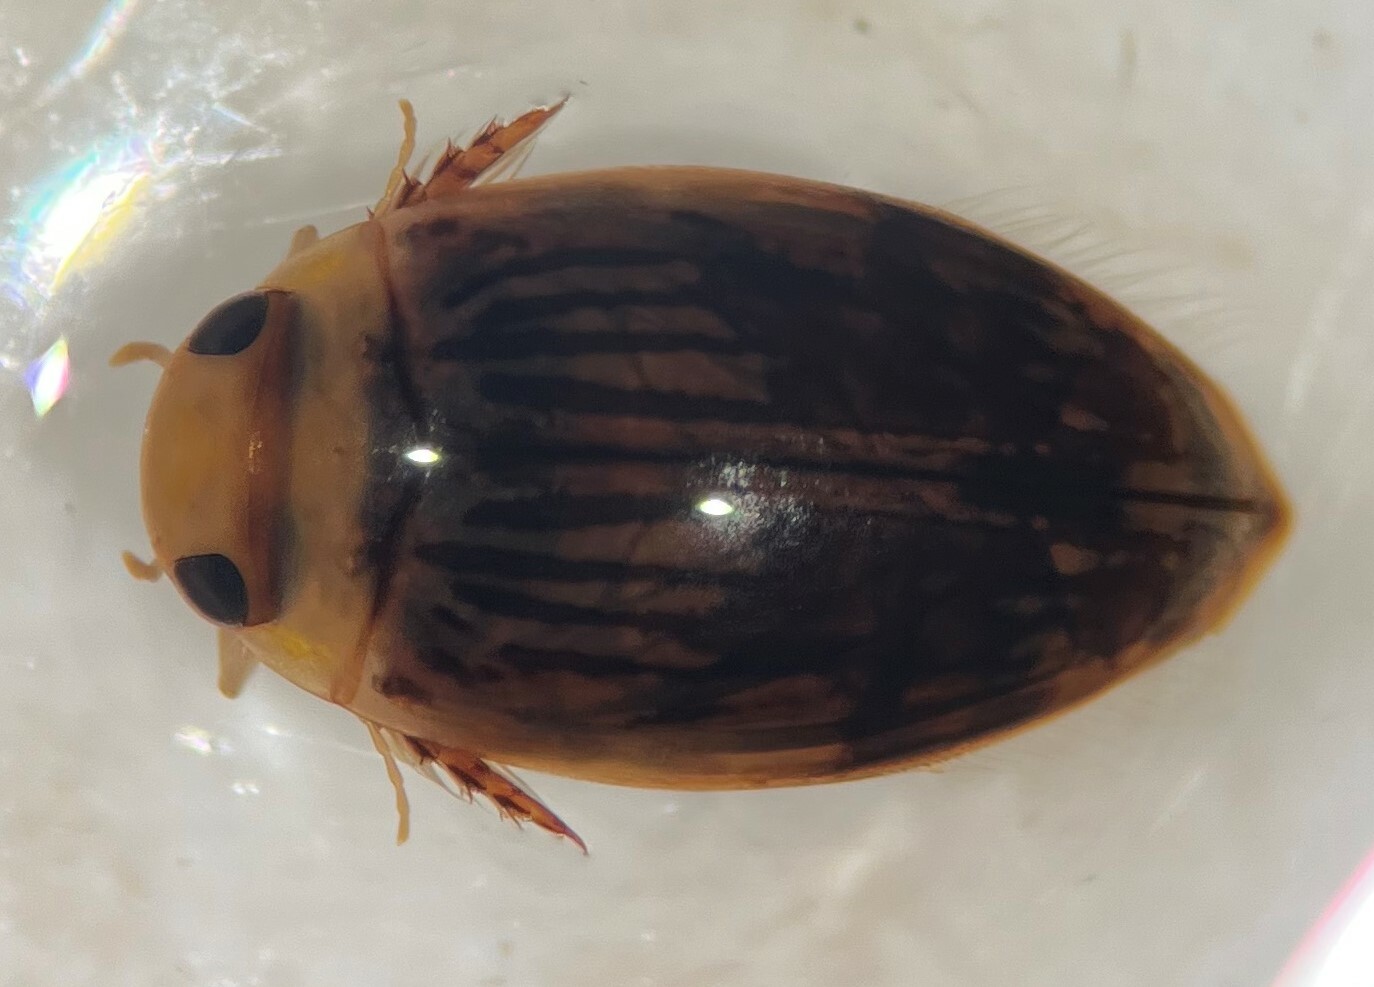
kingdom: Animalia
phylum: Arthropoda
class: Insecta
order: Coleoptera
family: Dytiscidae
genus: Laccophilus
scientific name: Laccophilus quadrilineatus
